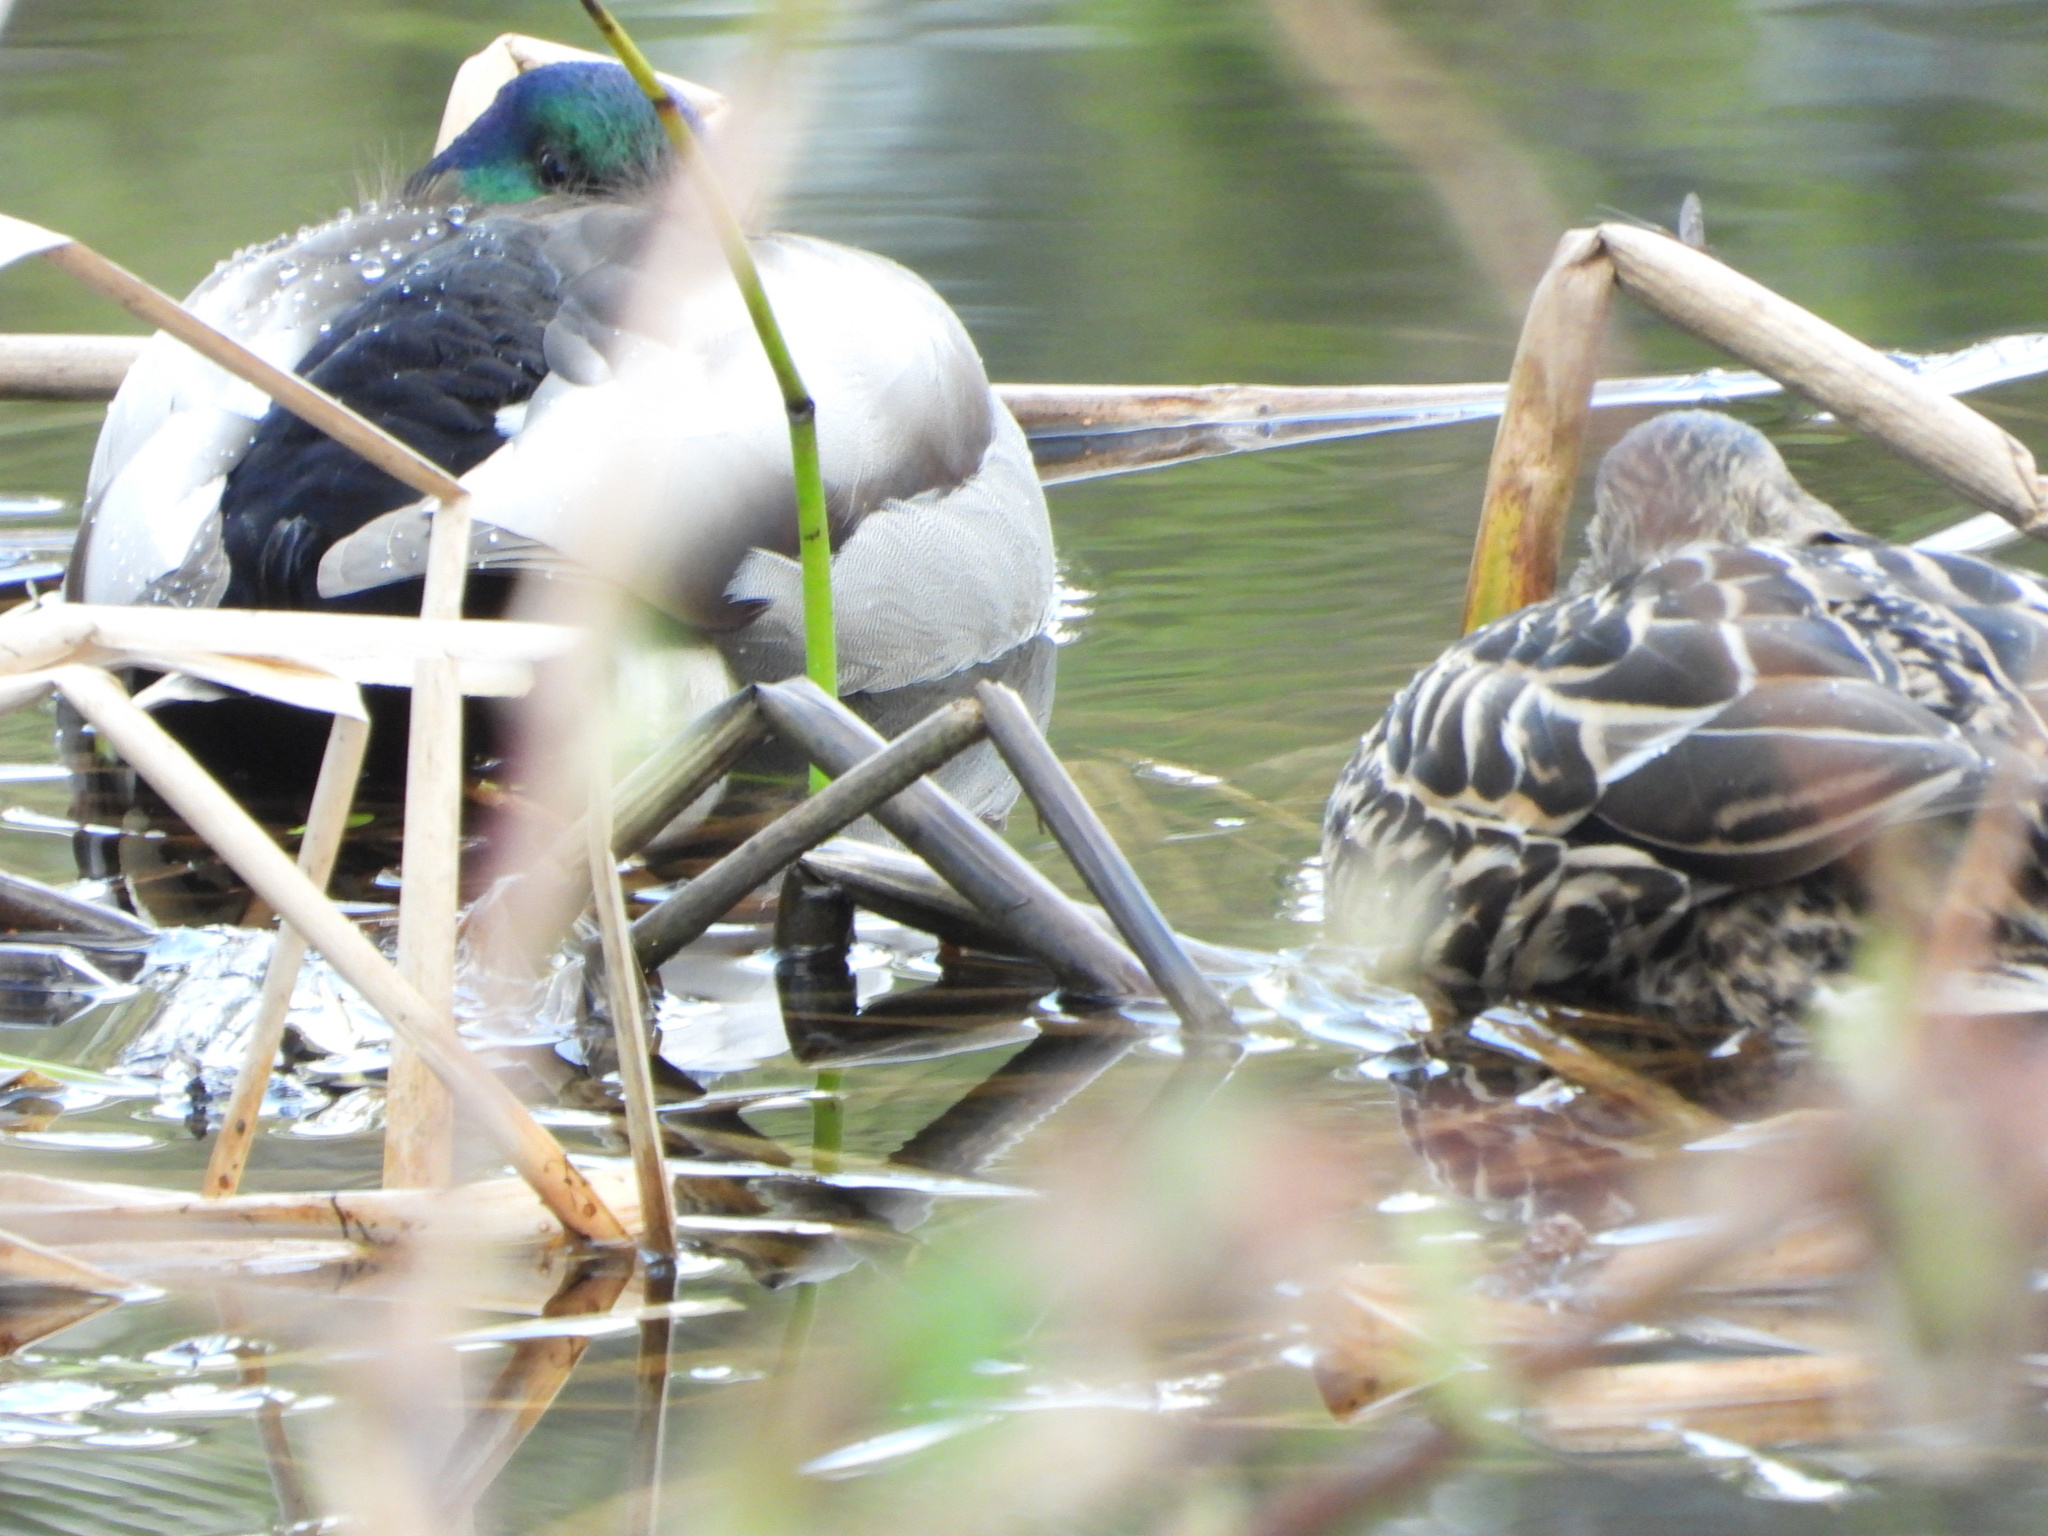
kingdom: Animalia
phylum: Chordata
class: Aves
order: Anseriformes
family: Anatidae
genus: Anas
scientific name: Anas platyrhynchos
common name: Mallard
